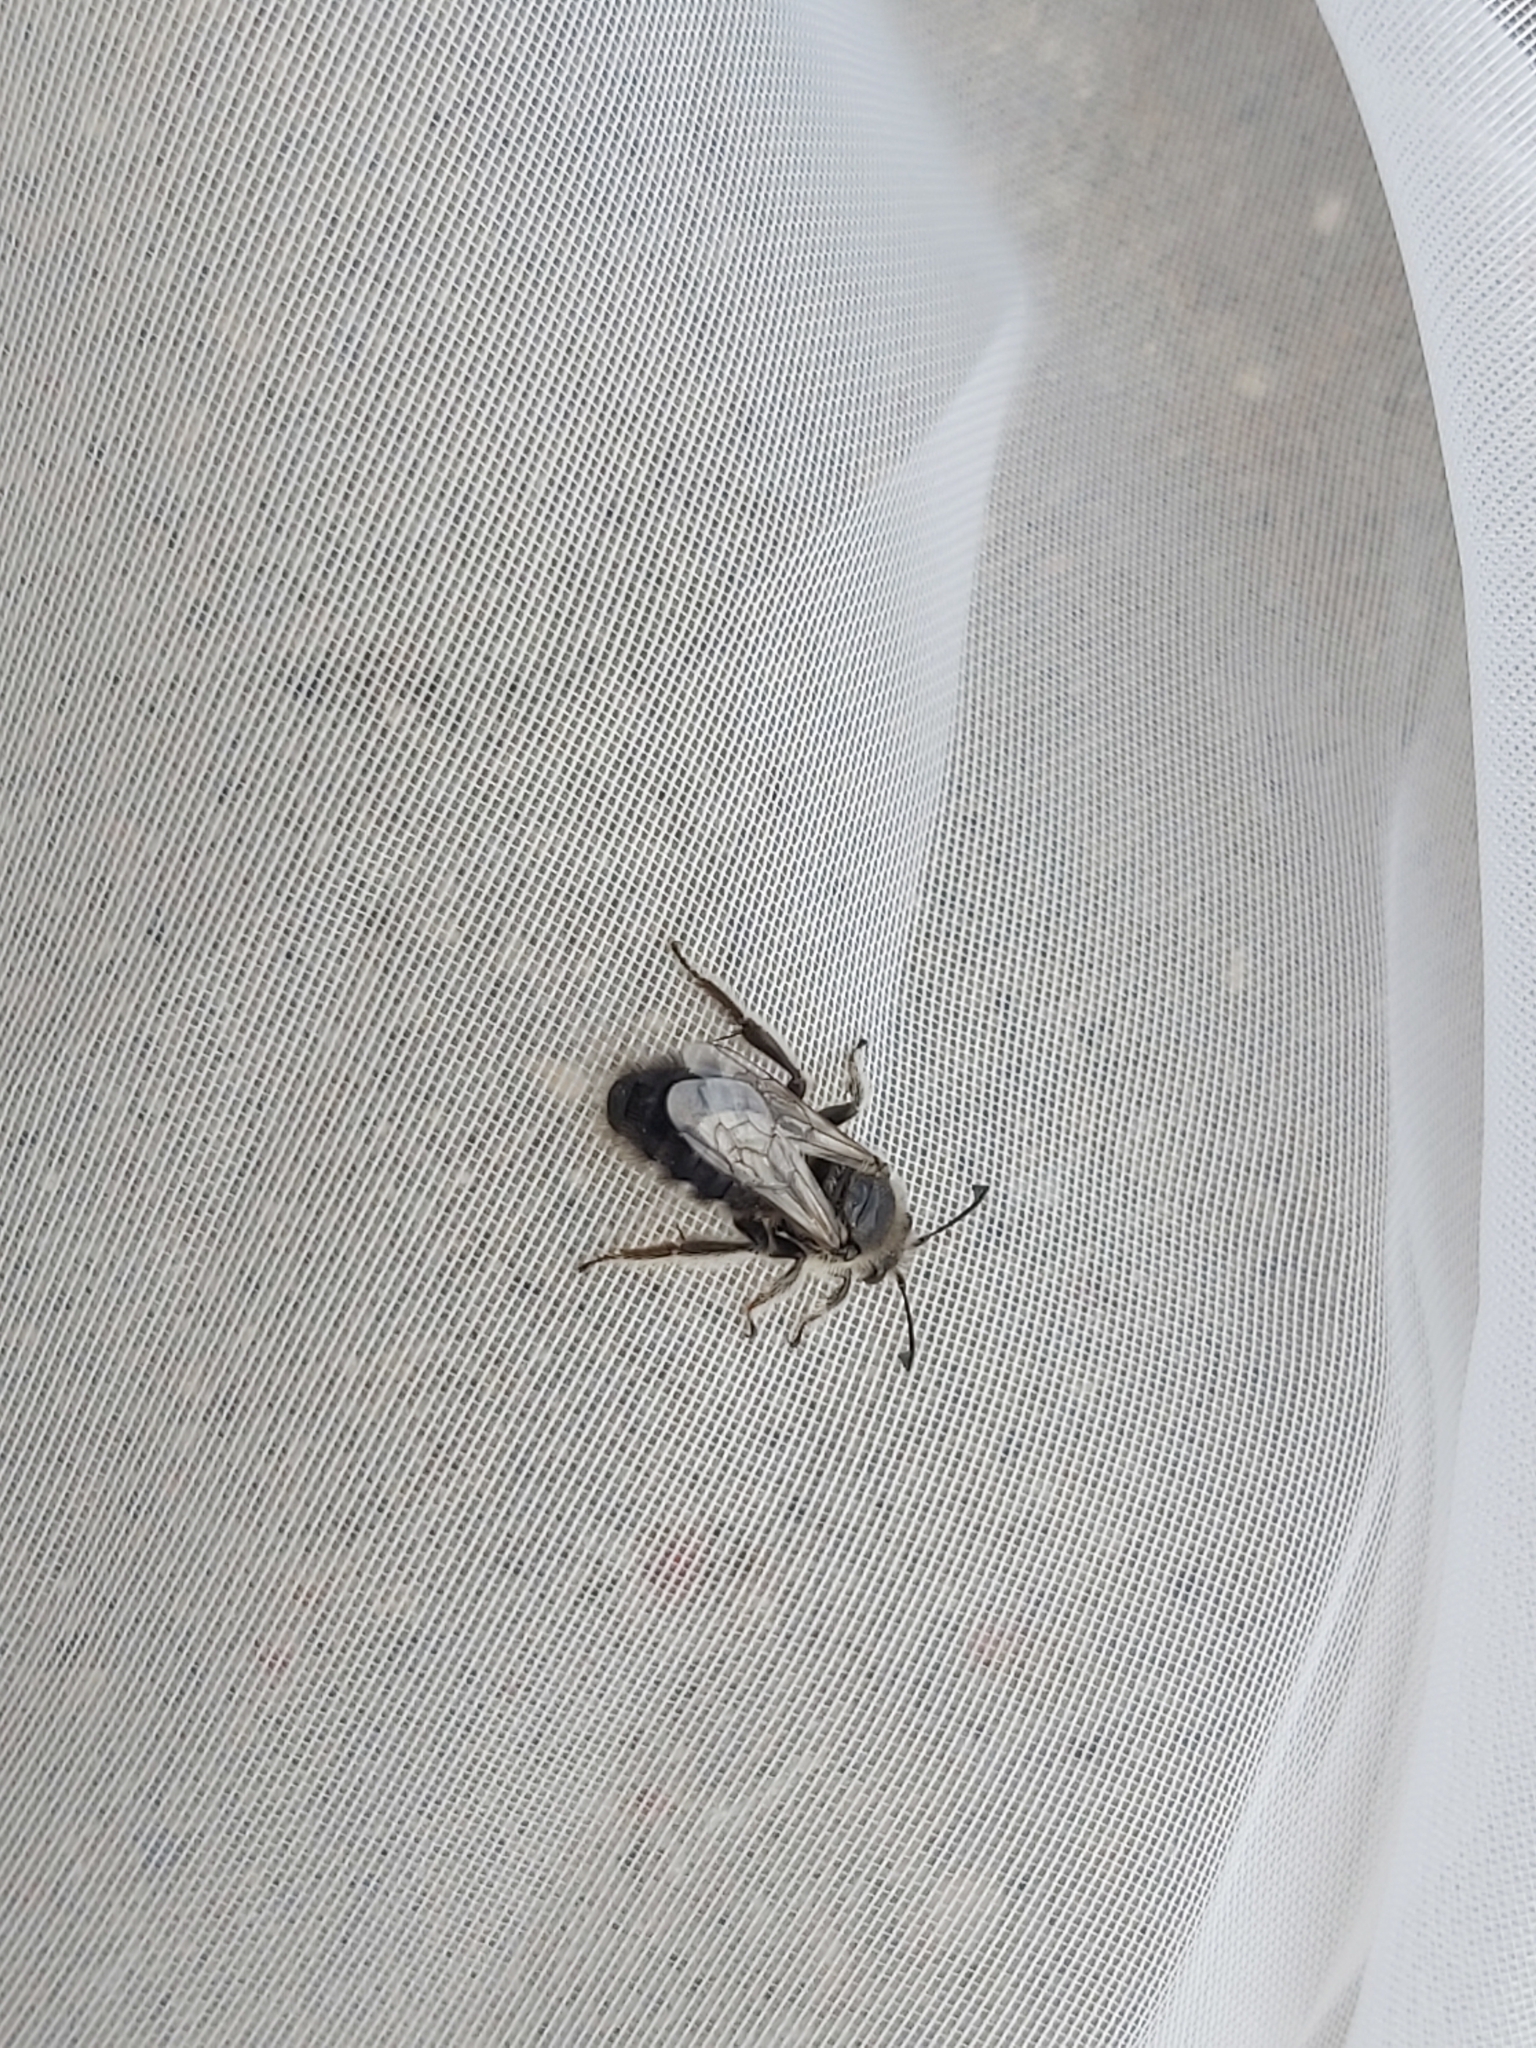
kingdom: Animalia
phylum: Arthropoda
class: Insecta
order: Hymenoptera
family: Halictidae
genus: Systropha
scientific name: Systropha curvicornis
